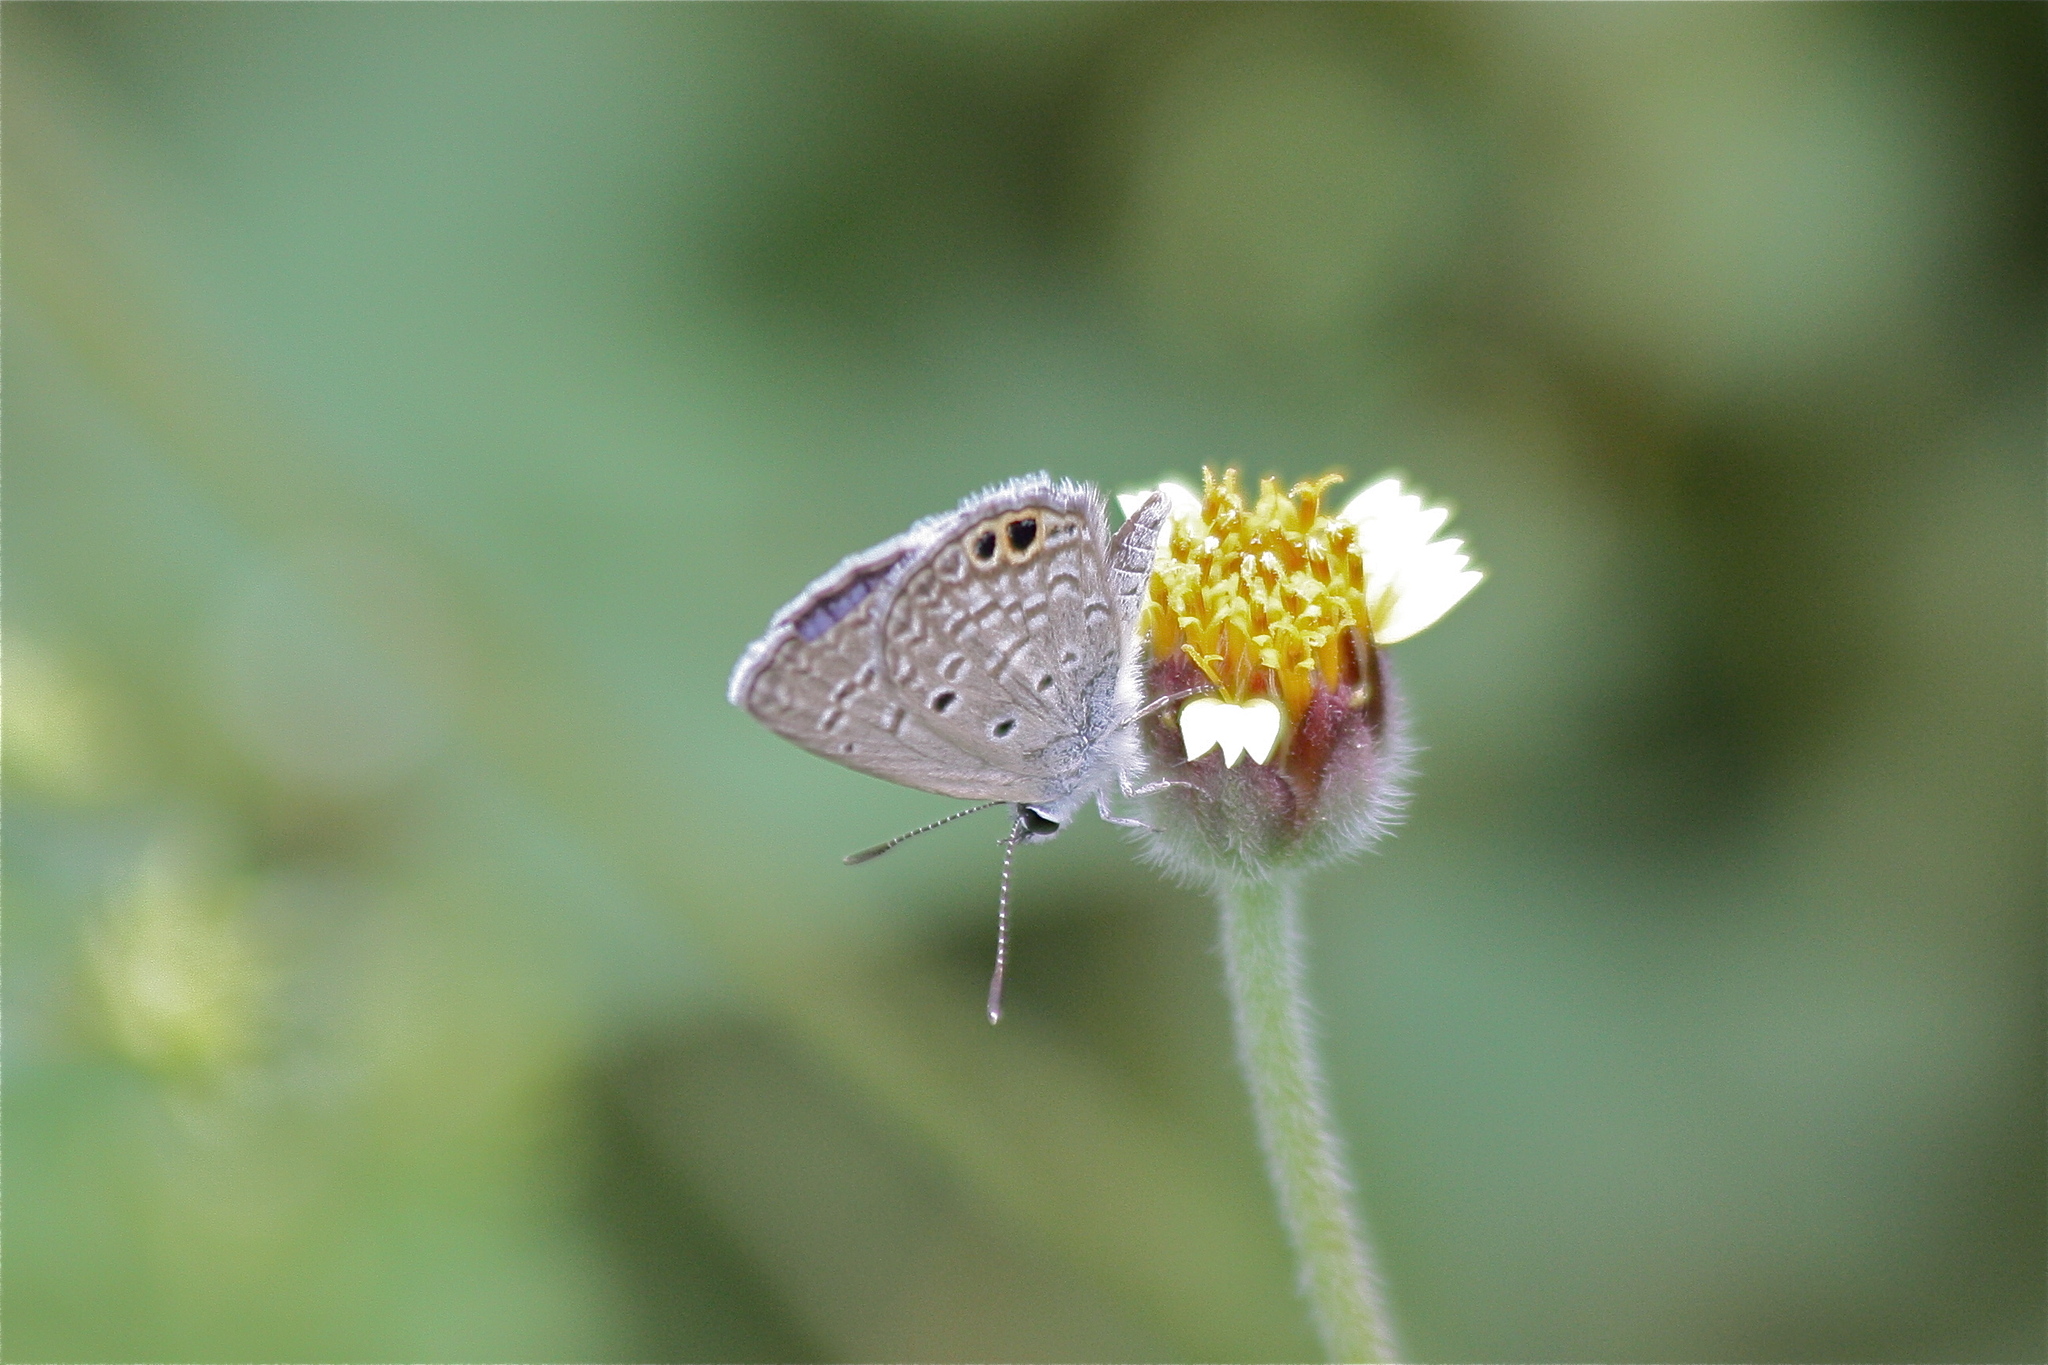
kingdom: Animalia
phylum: Arthropoda
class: Insecta
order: Lepidoptera
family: Lycaenidae
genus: Hemiargus
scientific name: Hemiargus ceraunus
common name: Ceraunus blue
